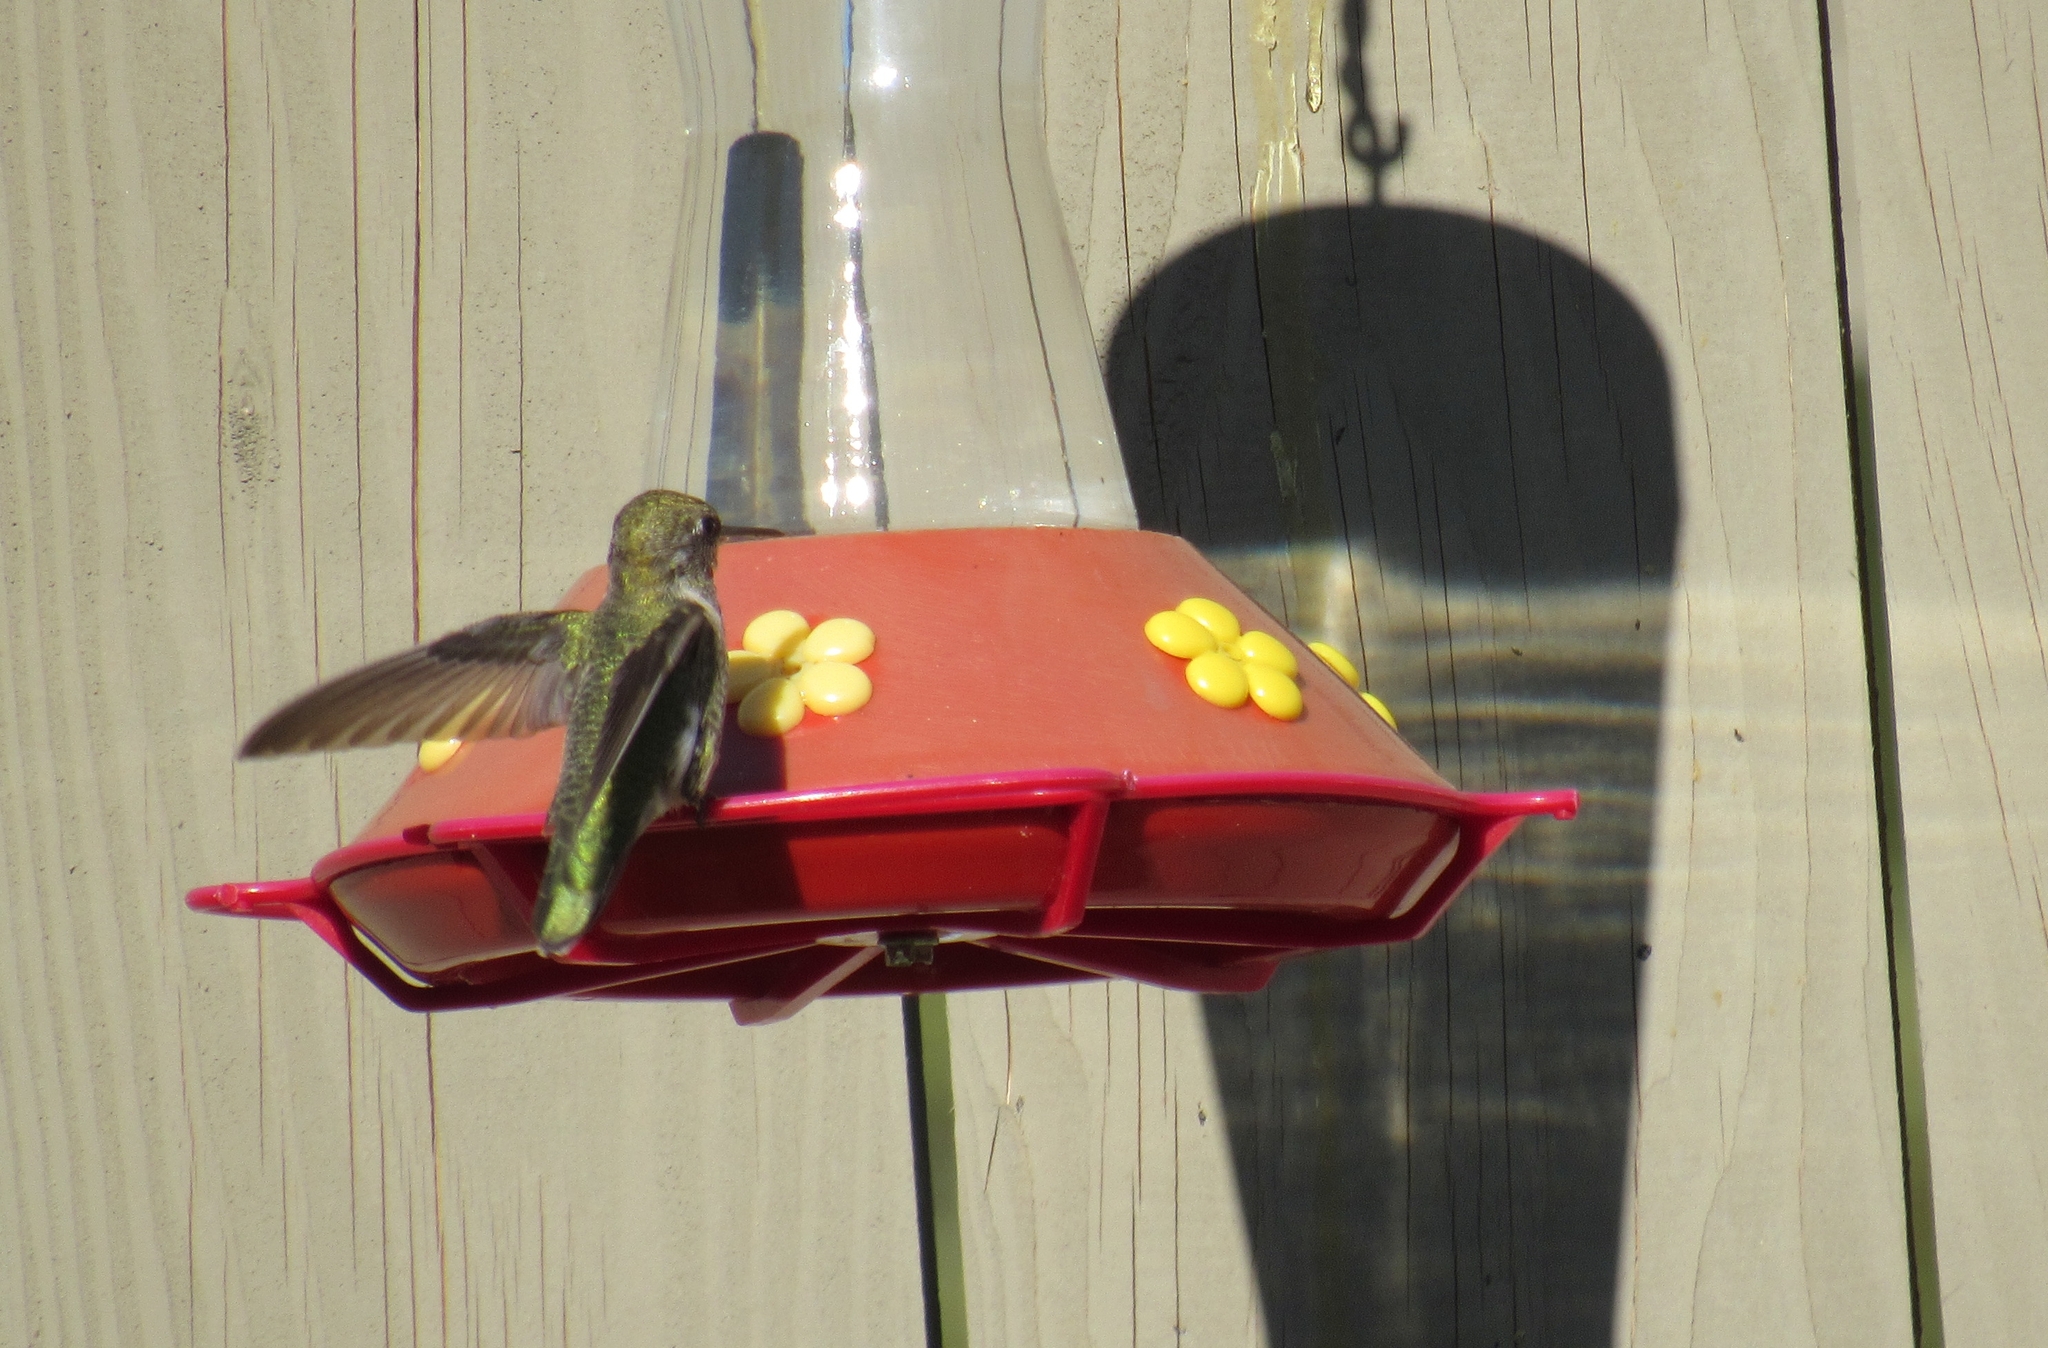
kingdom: Animalia
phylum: Chordata
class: Aves
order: Apodiformes
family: Trochilidae
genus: Selasphorus
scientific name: Selasphorus rufus
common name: Rufous hummingbird
